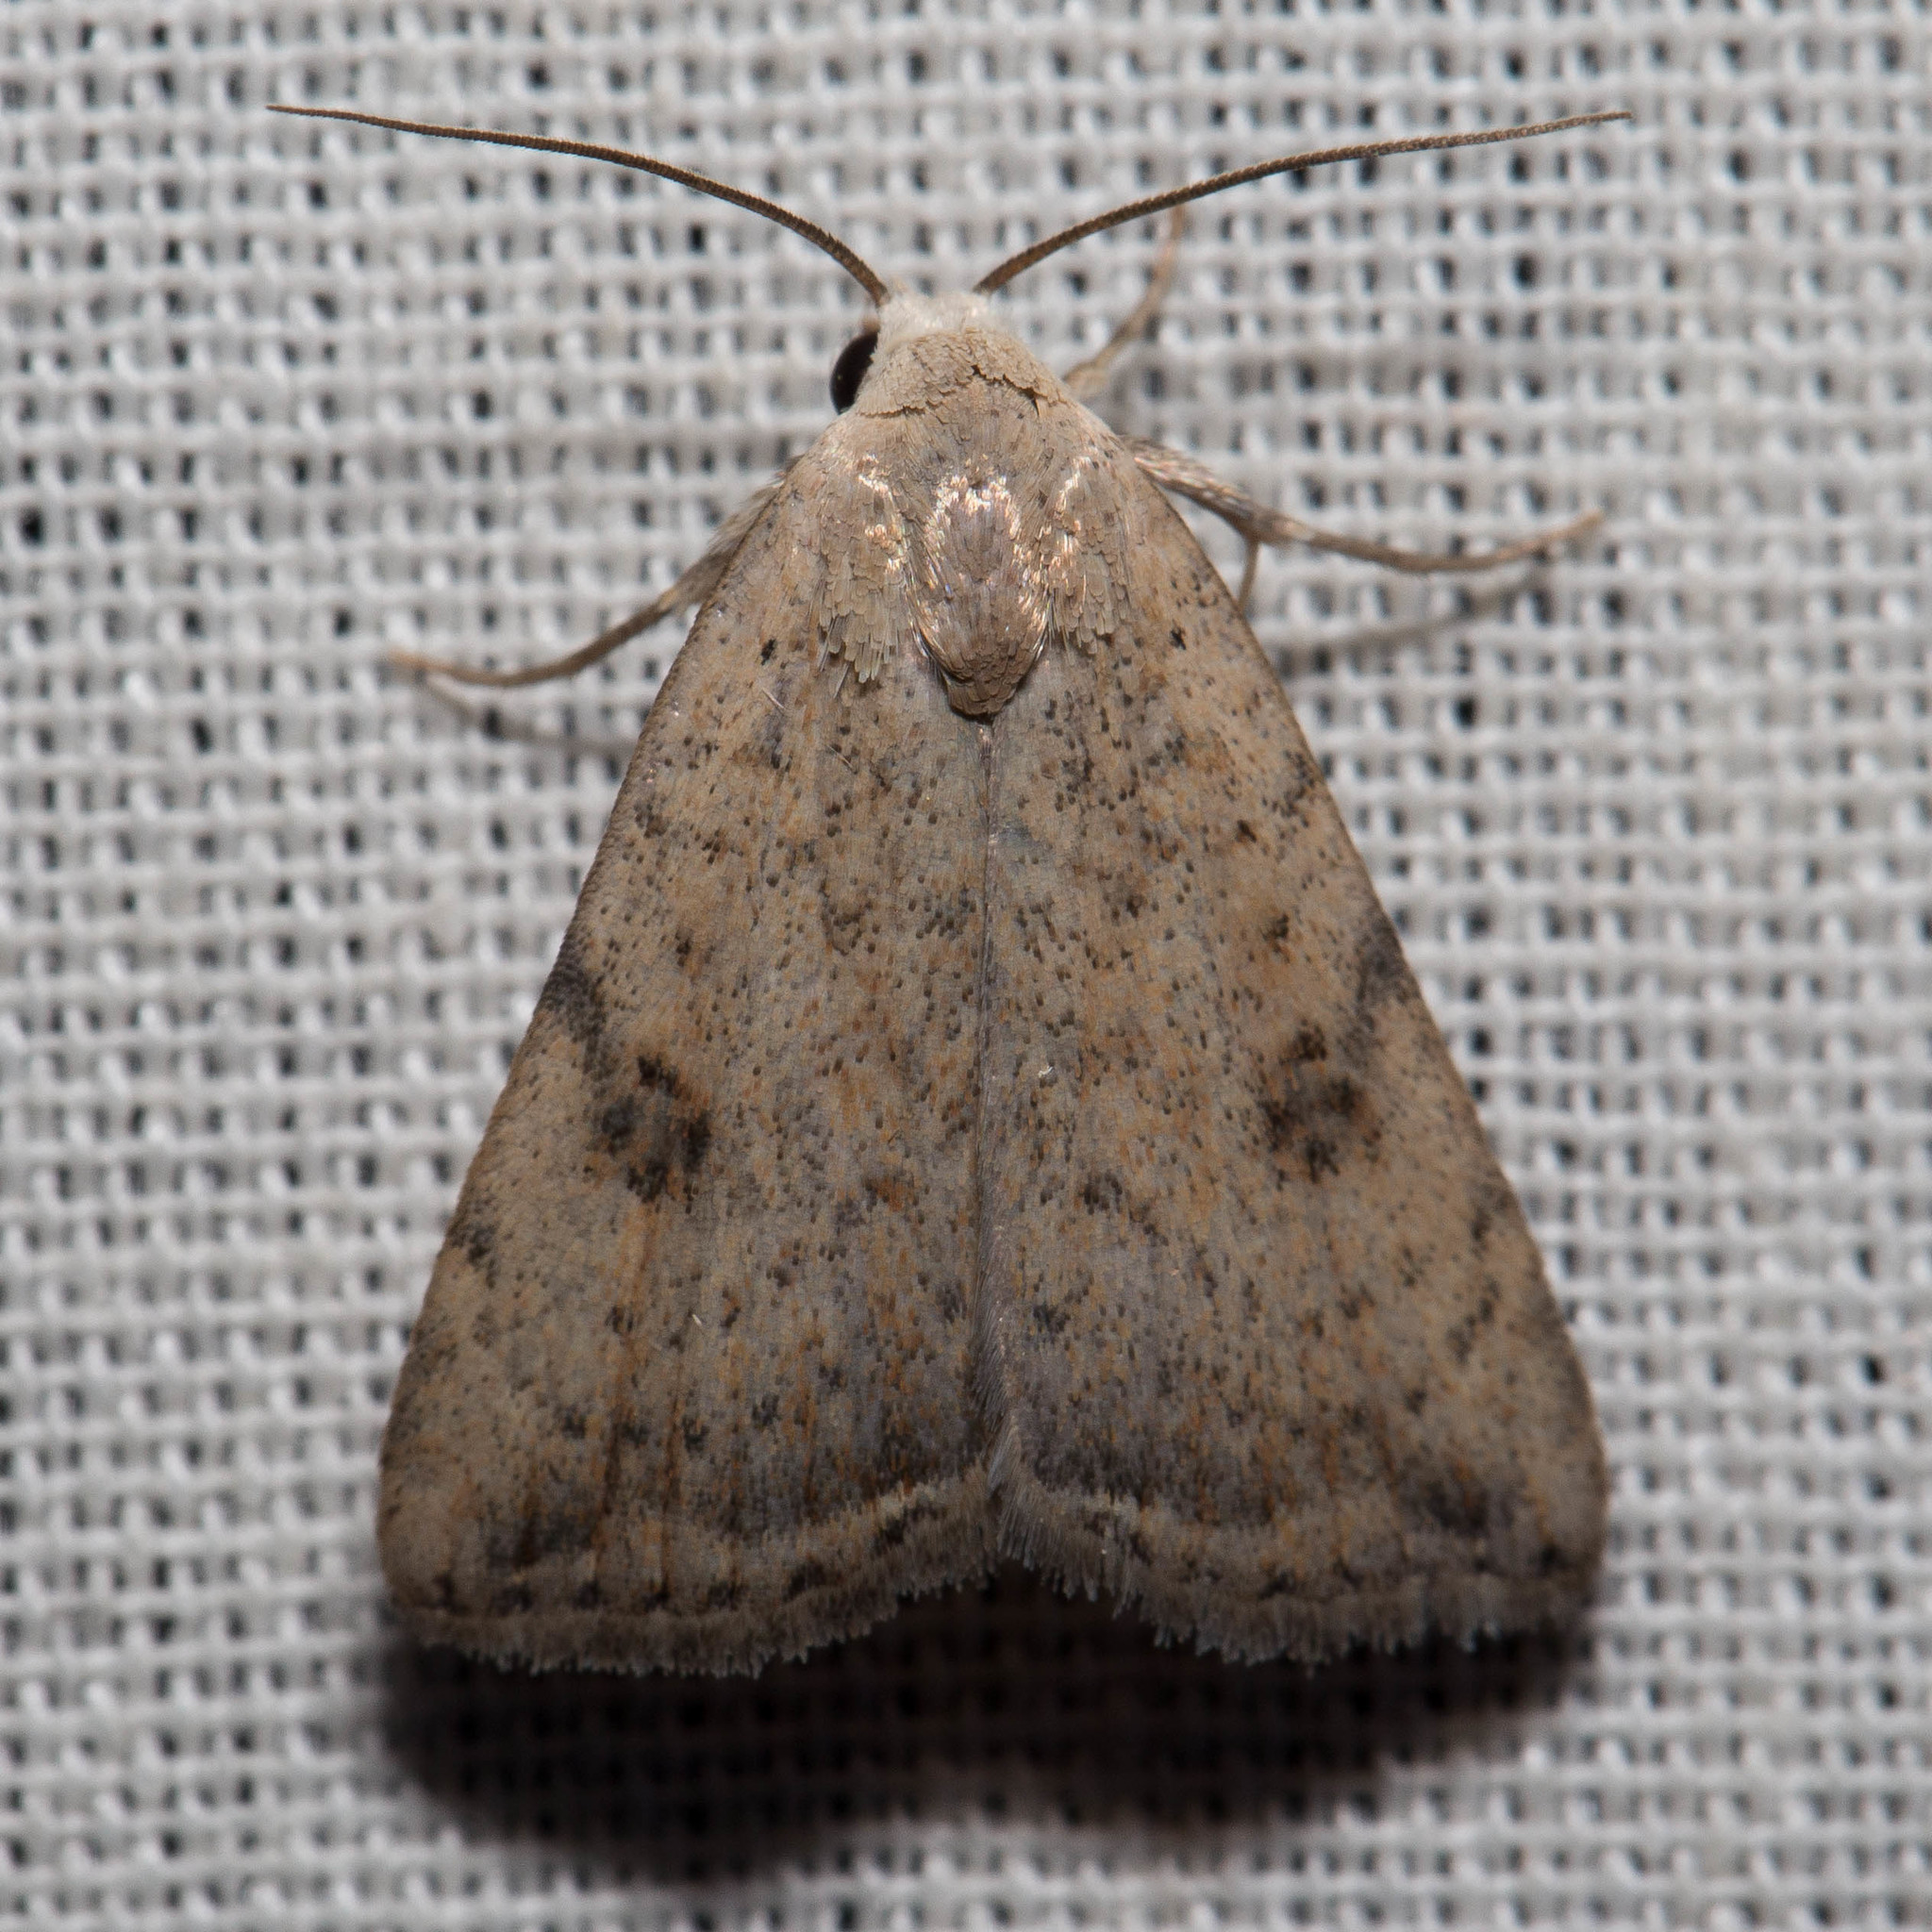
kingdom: Animalia
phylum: Arthropoda
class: Insecta
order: Lepidoptera
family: Noctuidae
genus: Micrathetis
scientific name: Micrathetis triplex
